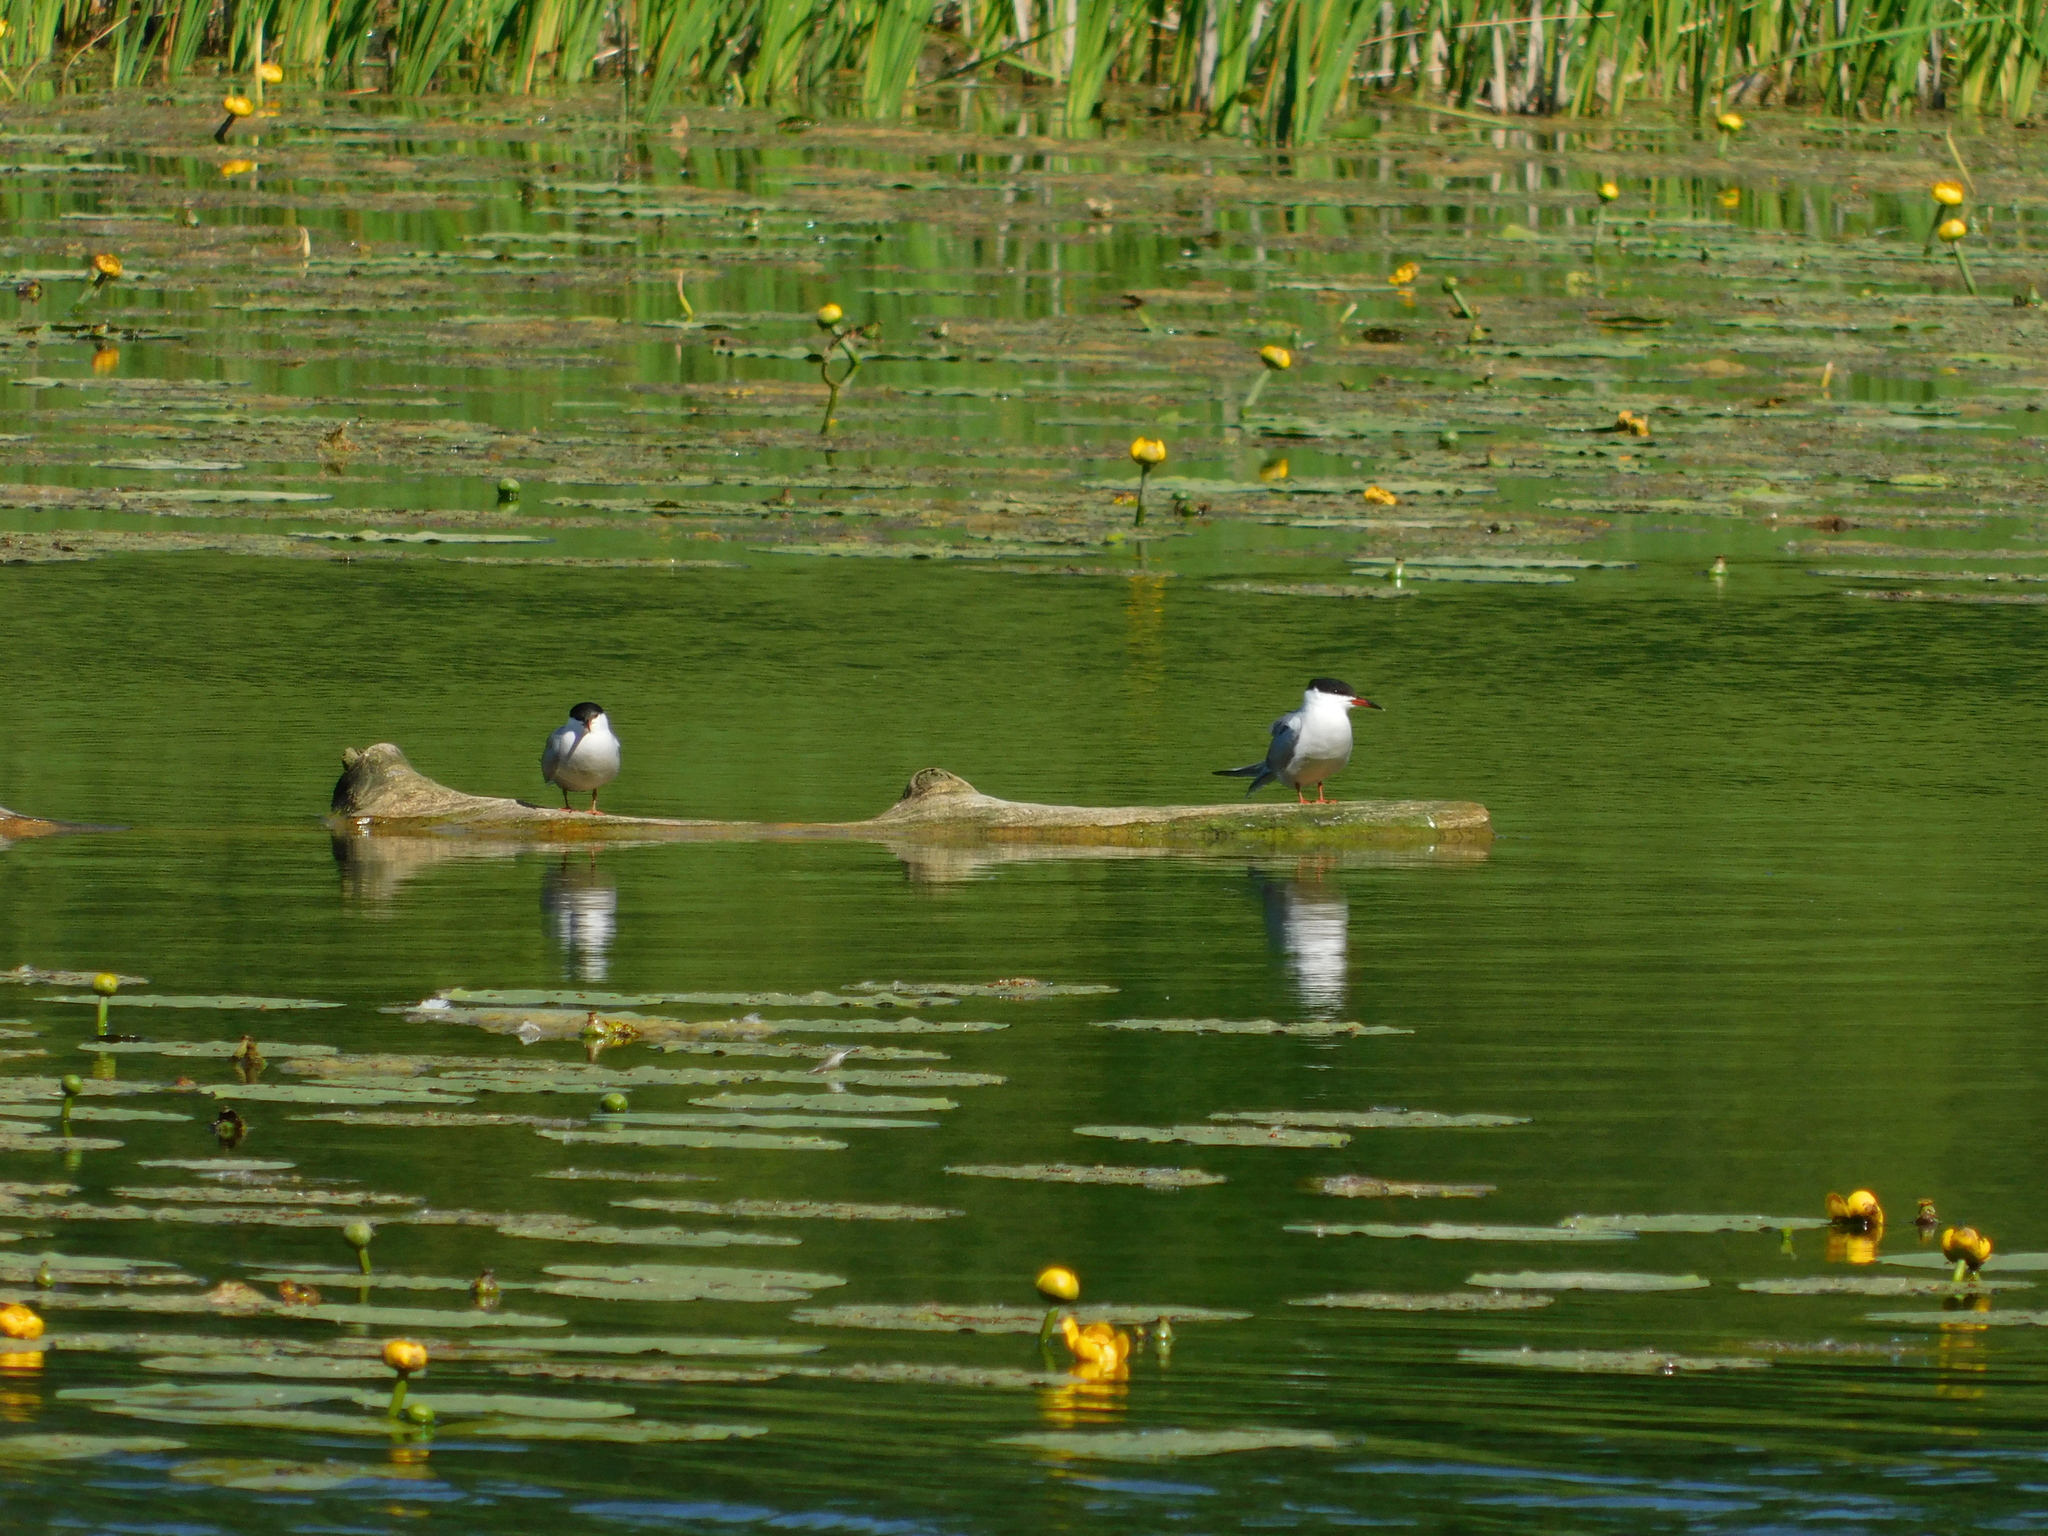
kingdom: Animalia
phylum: Chordata
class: Aves
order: Charadriiformes
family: Laridae
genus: Sterna
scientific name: Sterna hirundo
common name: Common tern
